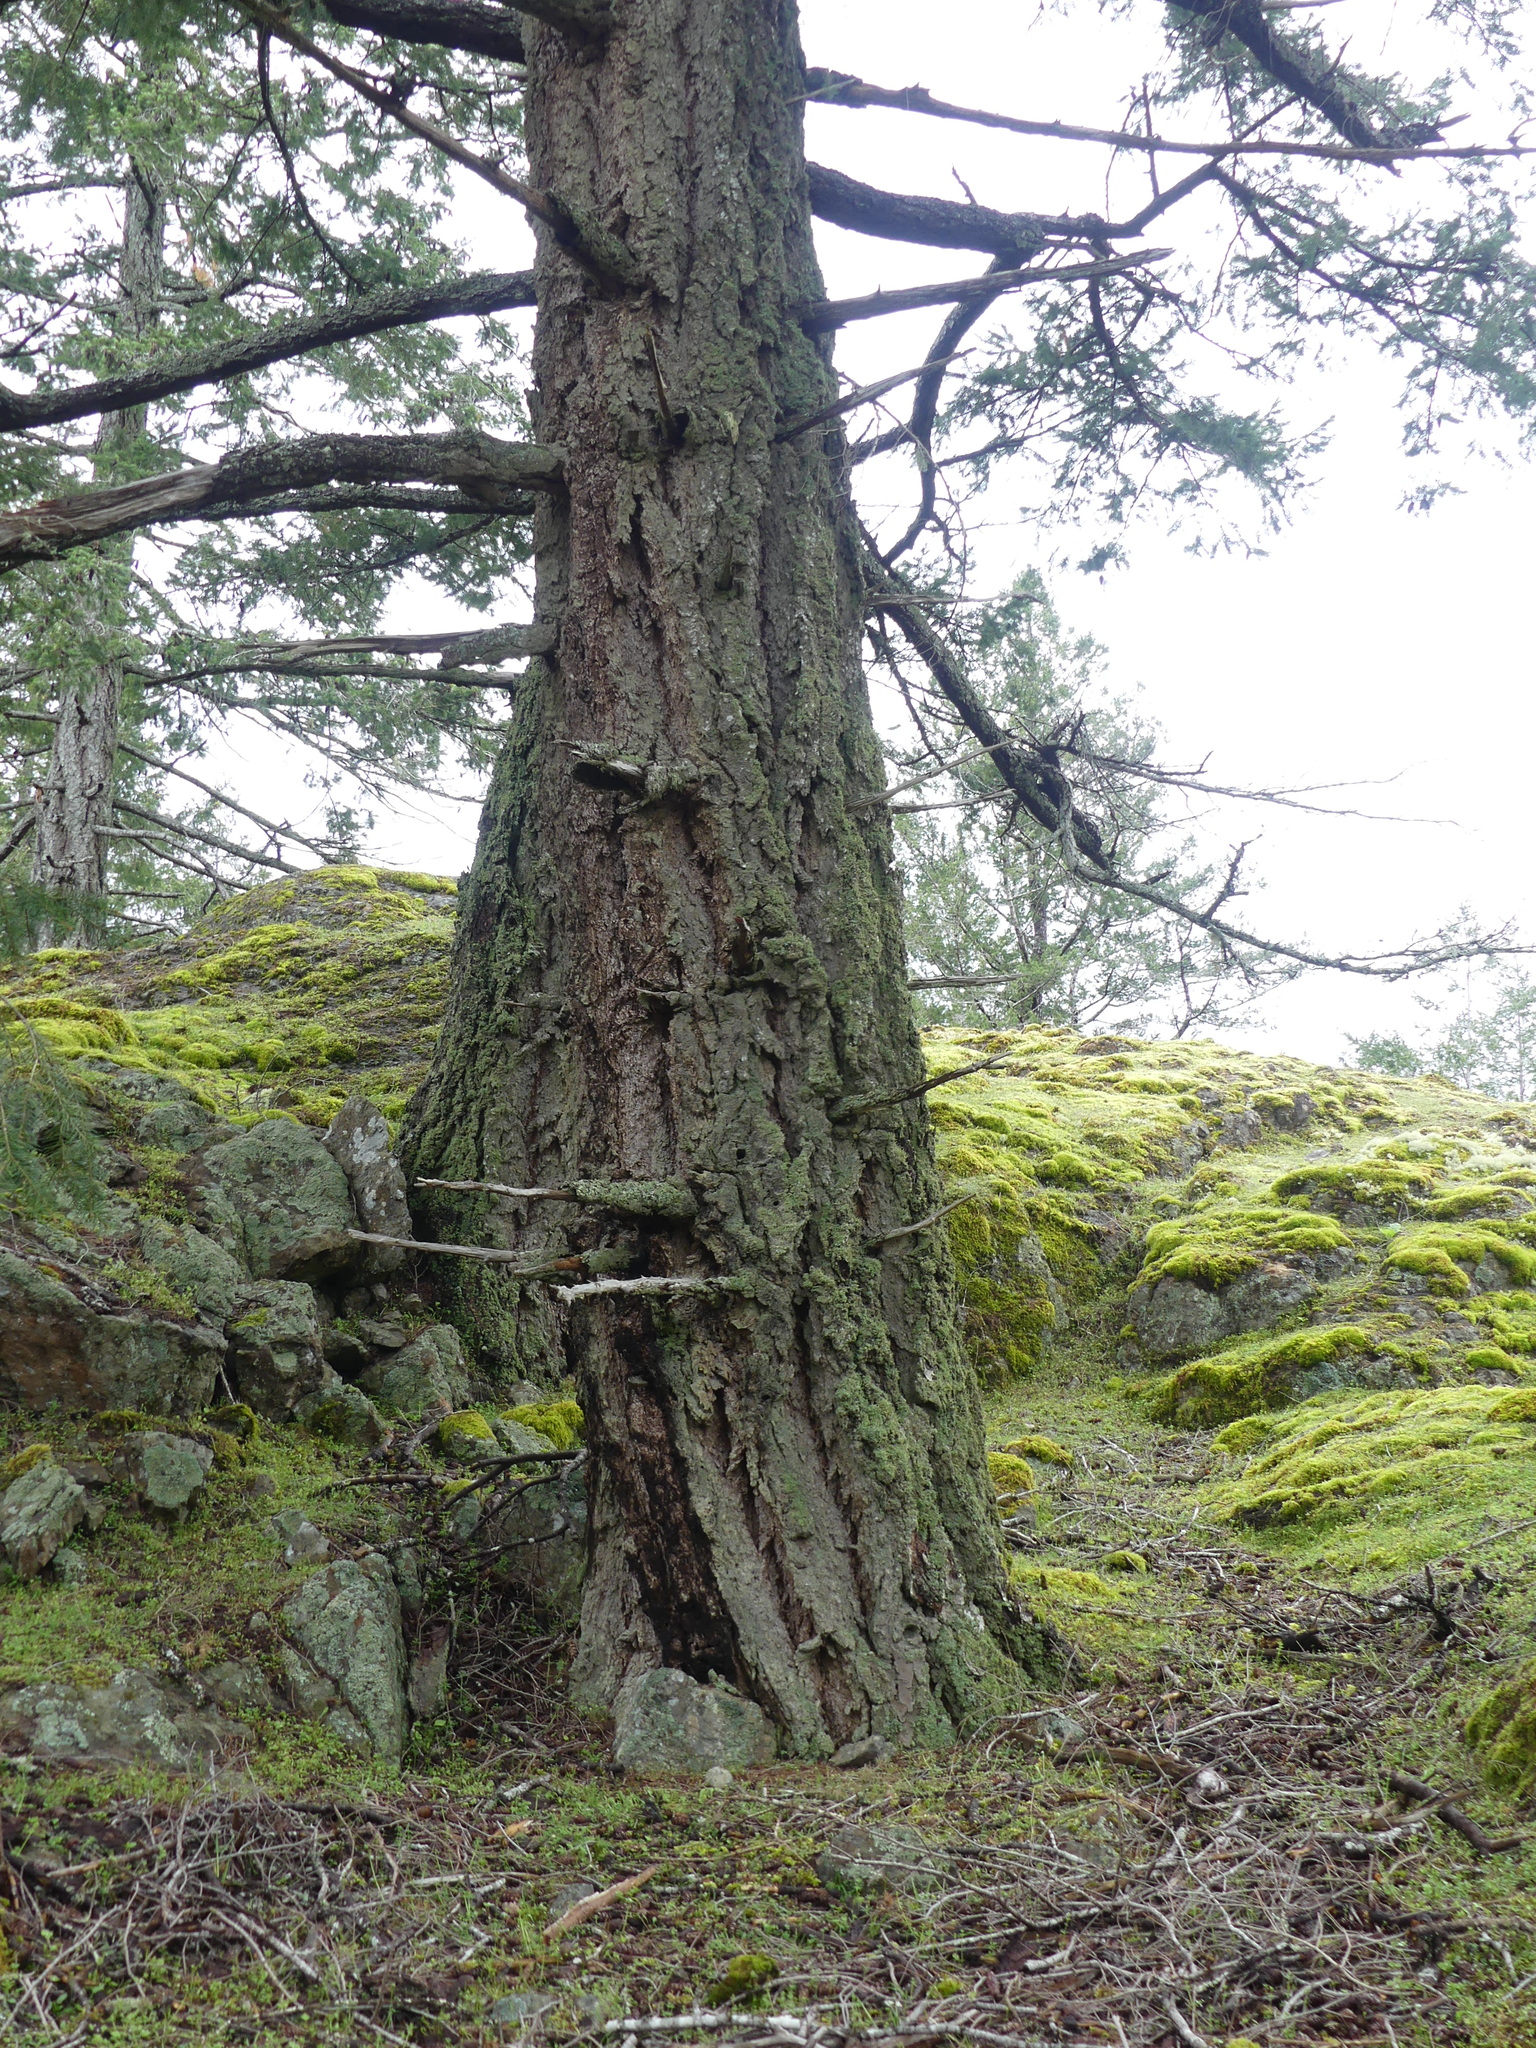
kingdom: Plantae
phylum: Tracheophyta
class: Pinopsida
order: Pinales
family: Pinaceae
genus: Pseudotsuga
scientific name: Pseudotsuga menziesii
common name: Douglas fir
